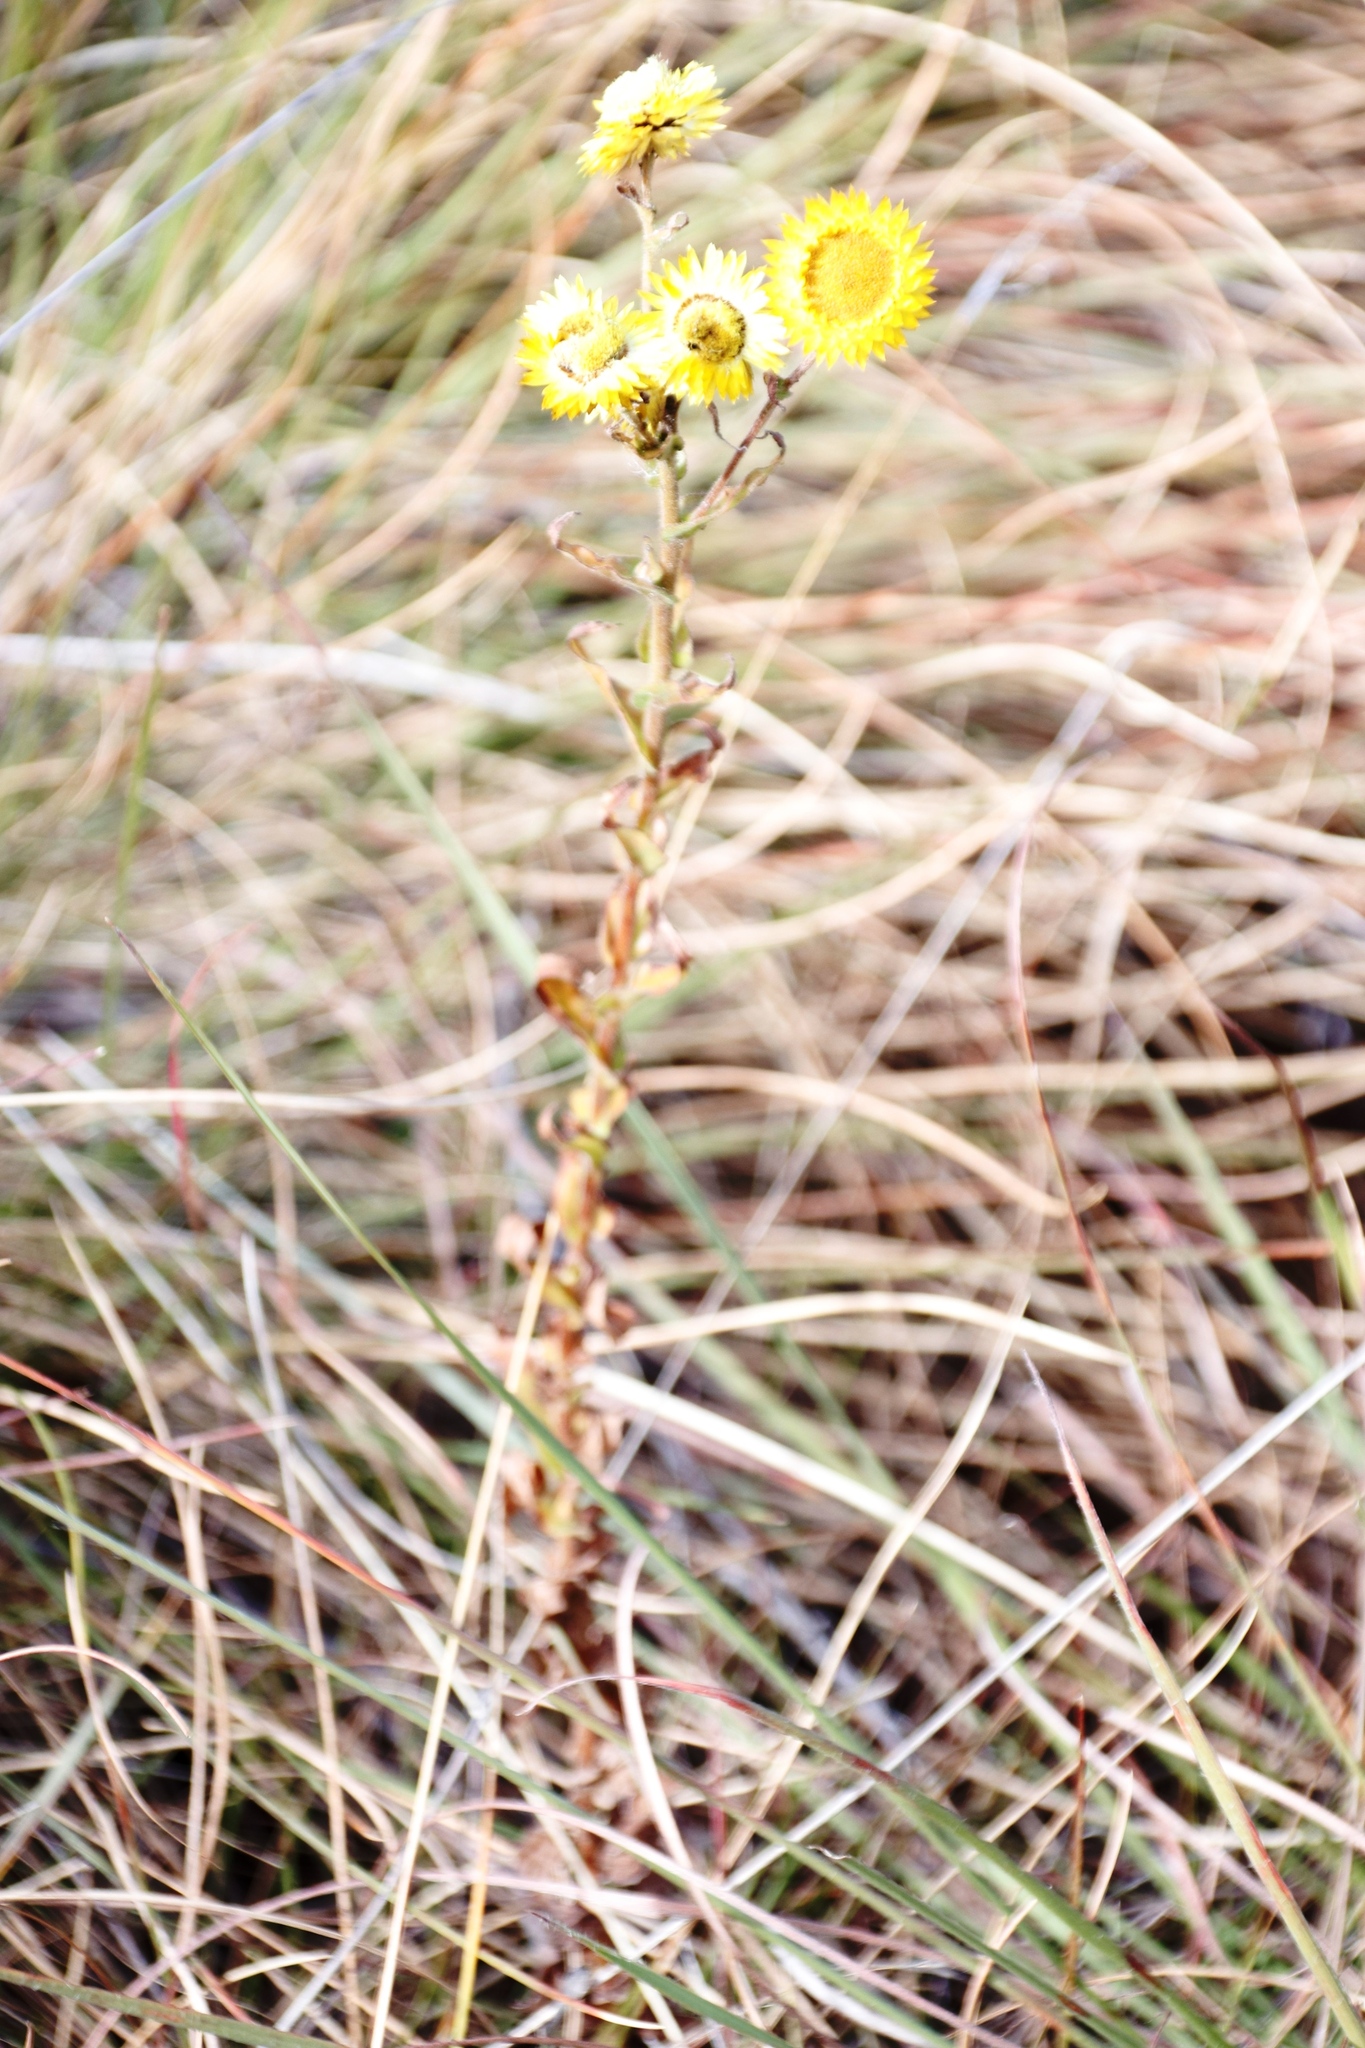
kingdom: Plantae
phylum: Tracheophyta
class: Magnoliopsida
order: Asterales
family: Asteraceae
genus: Helichrysum
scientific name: Helichrysum cooperi
